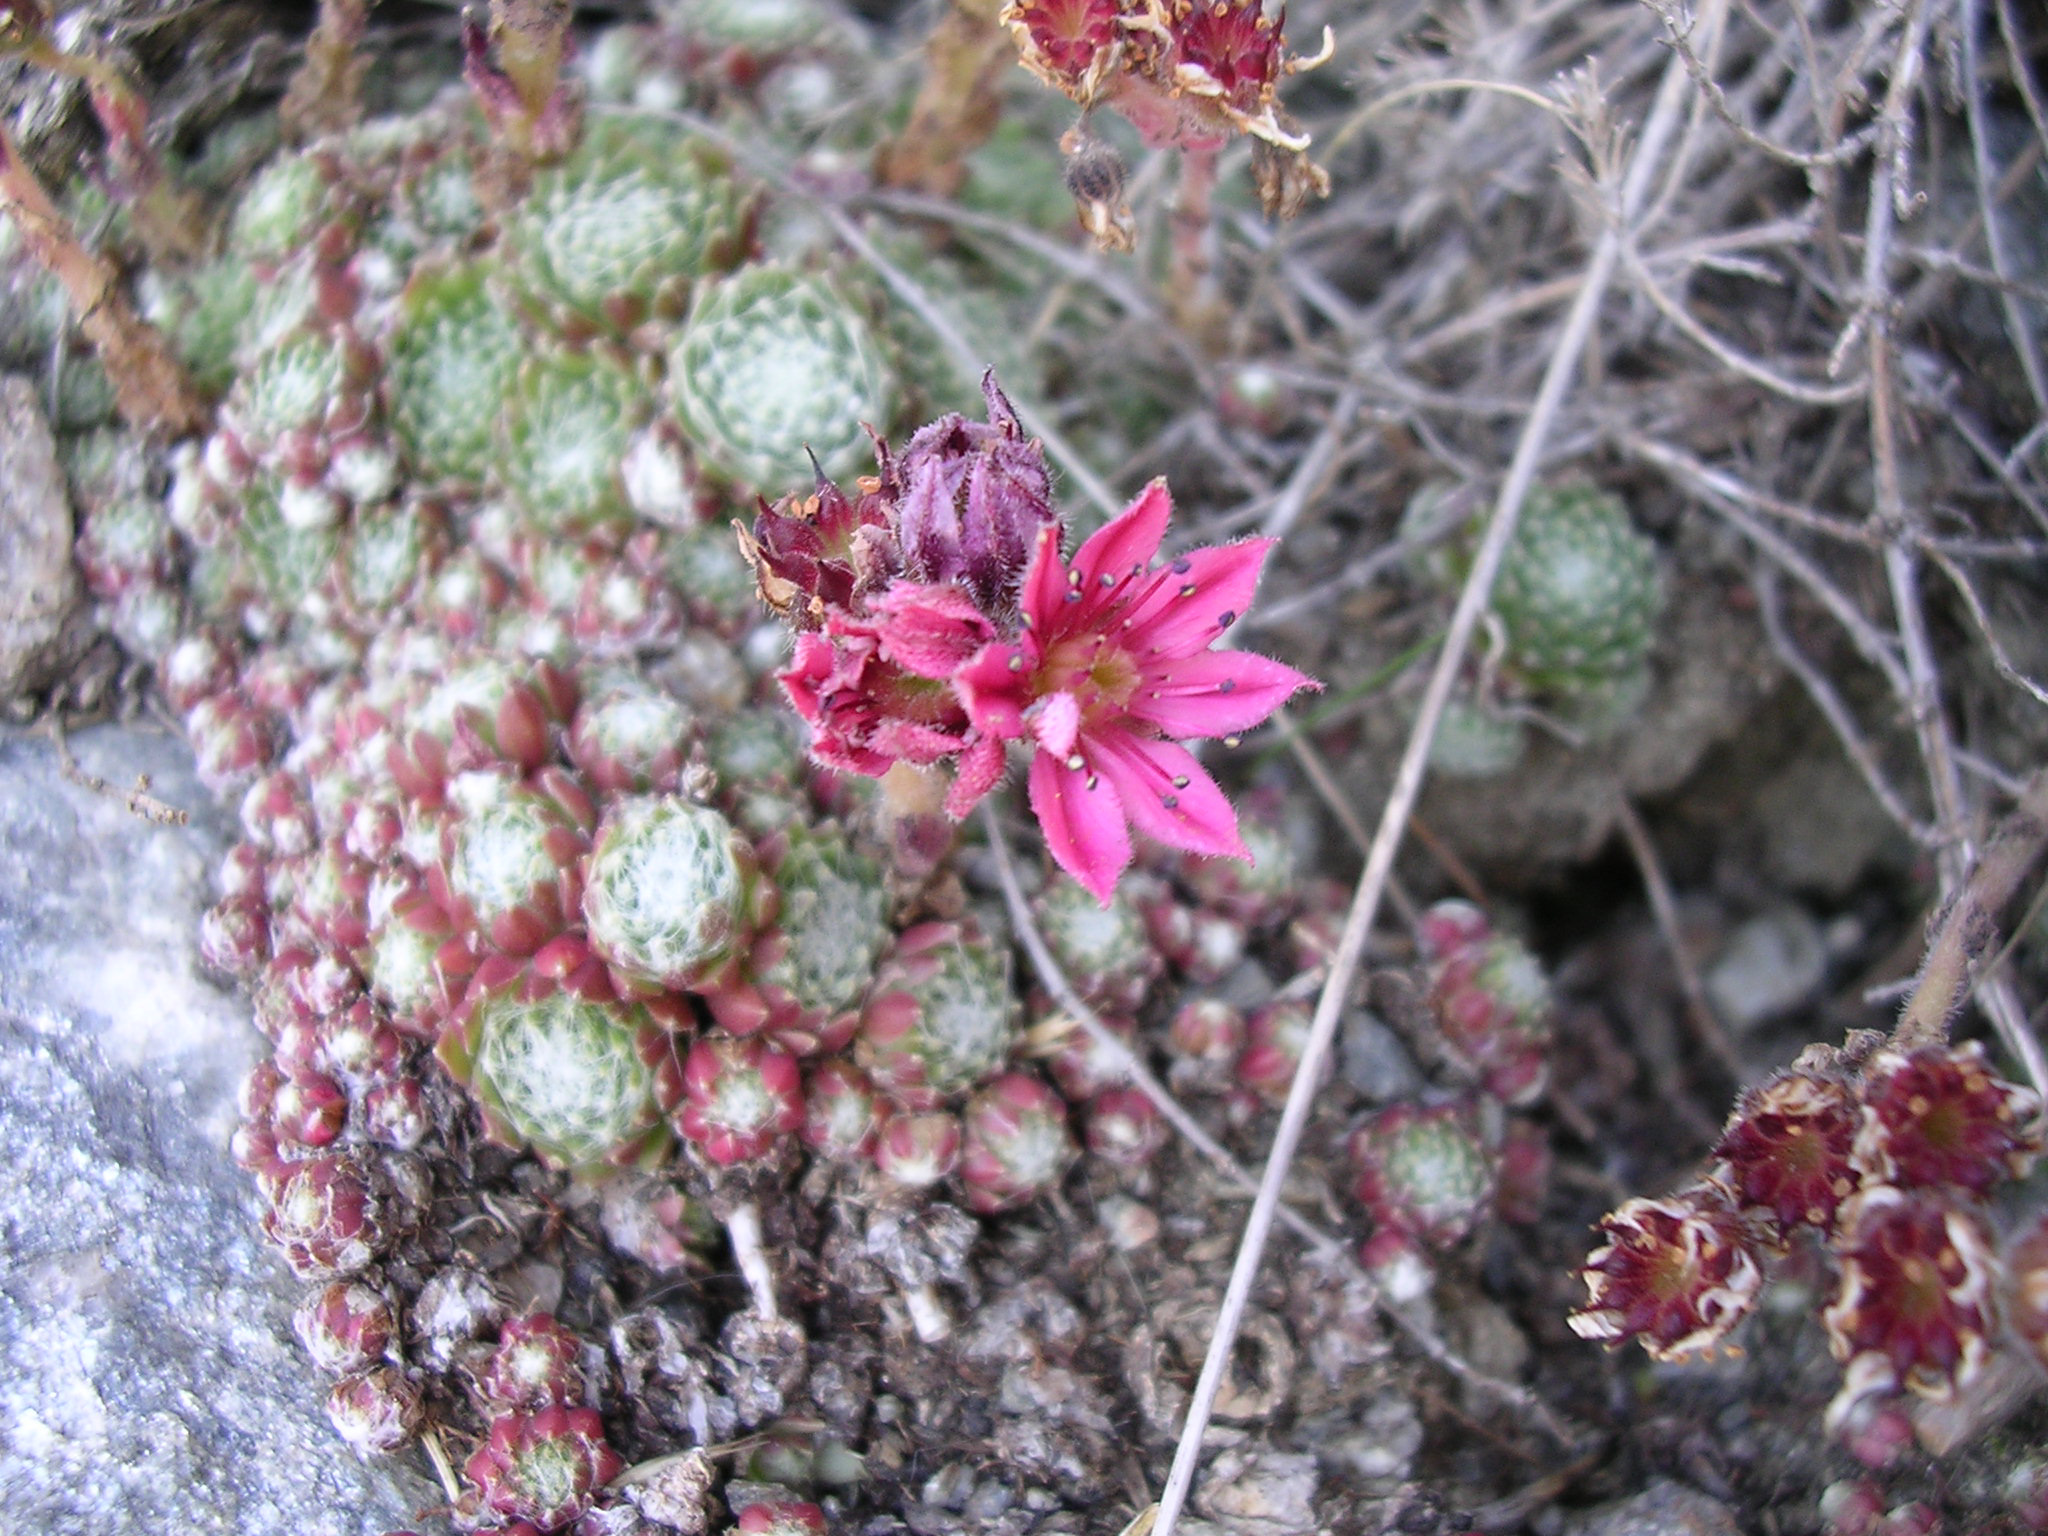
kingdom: Plantae
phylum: Tracheophyta
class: Magnoliopsida
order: Saxifragales
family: Crassulaceae
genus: Sempervivum
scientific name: Sempervivum arachnoideum
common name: Cobweb house-leek
